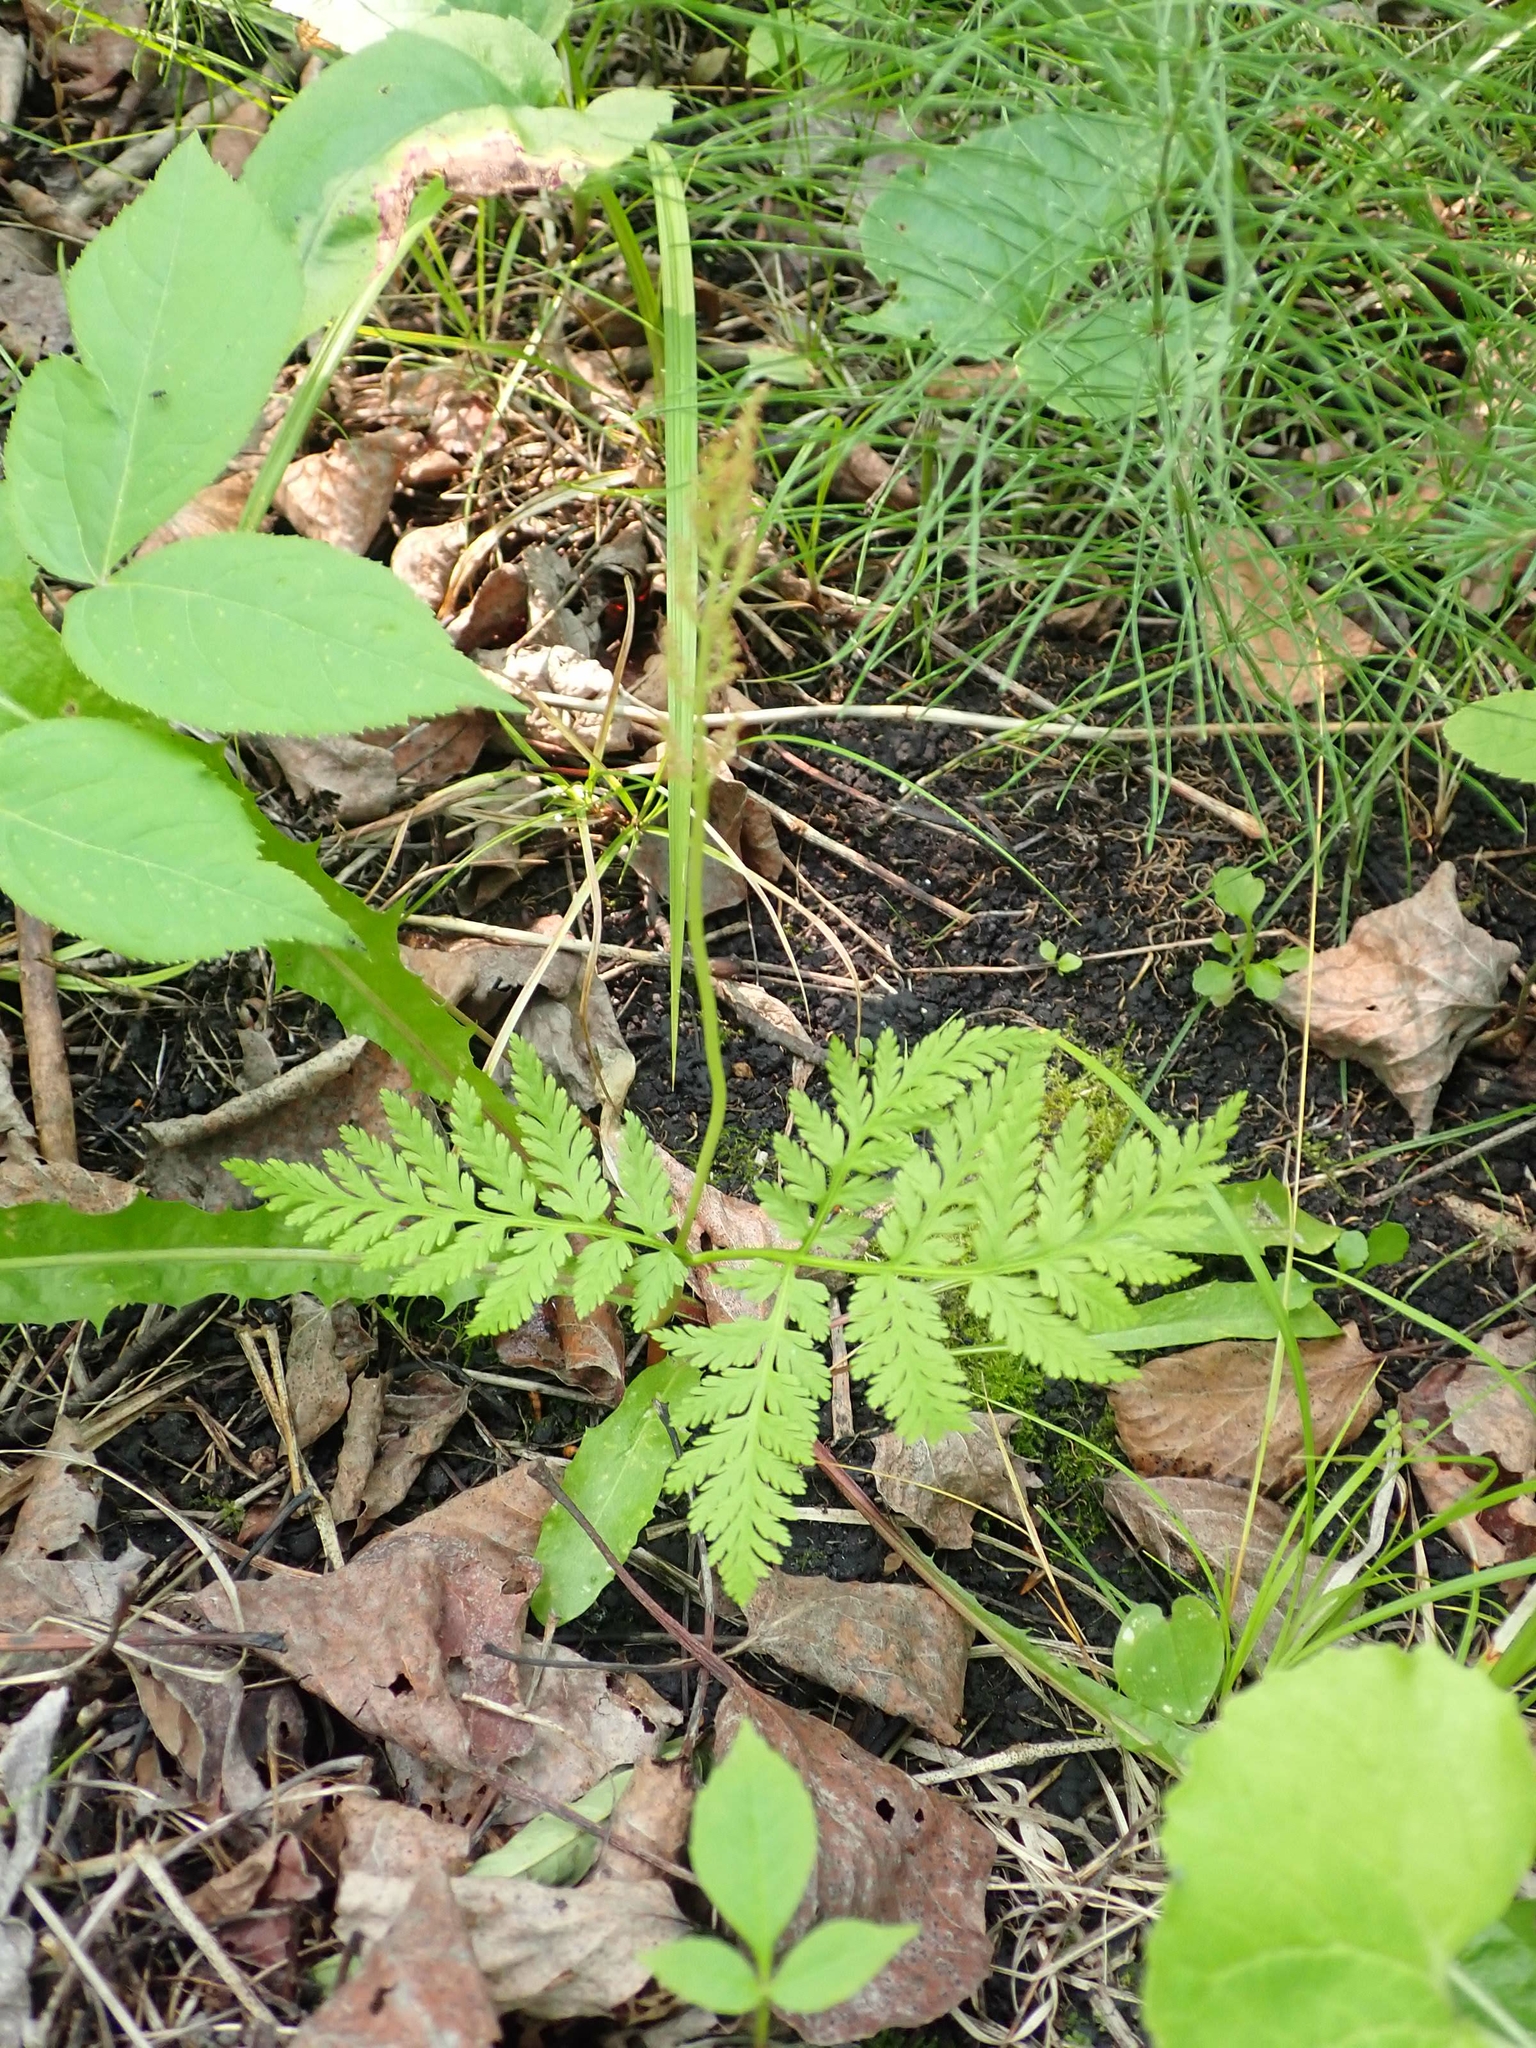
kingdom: Plantae
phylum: Tracheophyta
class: Polypodiopsida
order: Ophioglossales
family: Ophioglossaceae
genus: Botrypus
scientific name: Botrypus virginianus
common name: Common grapefern
